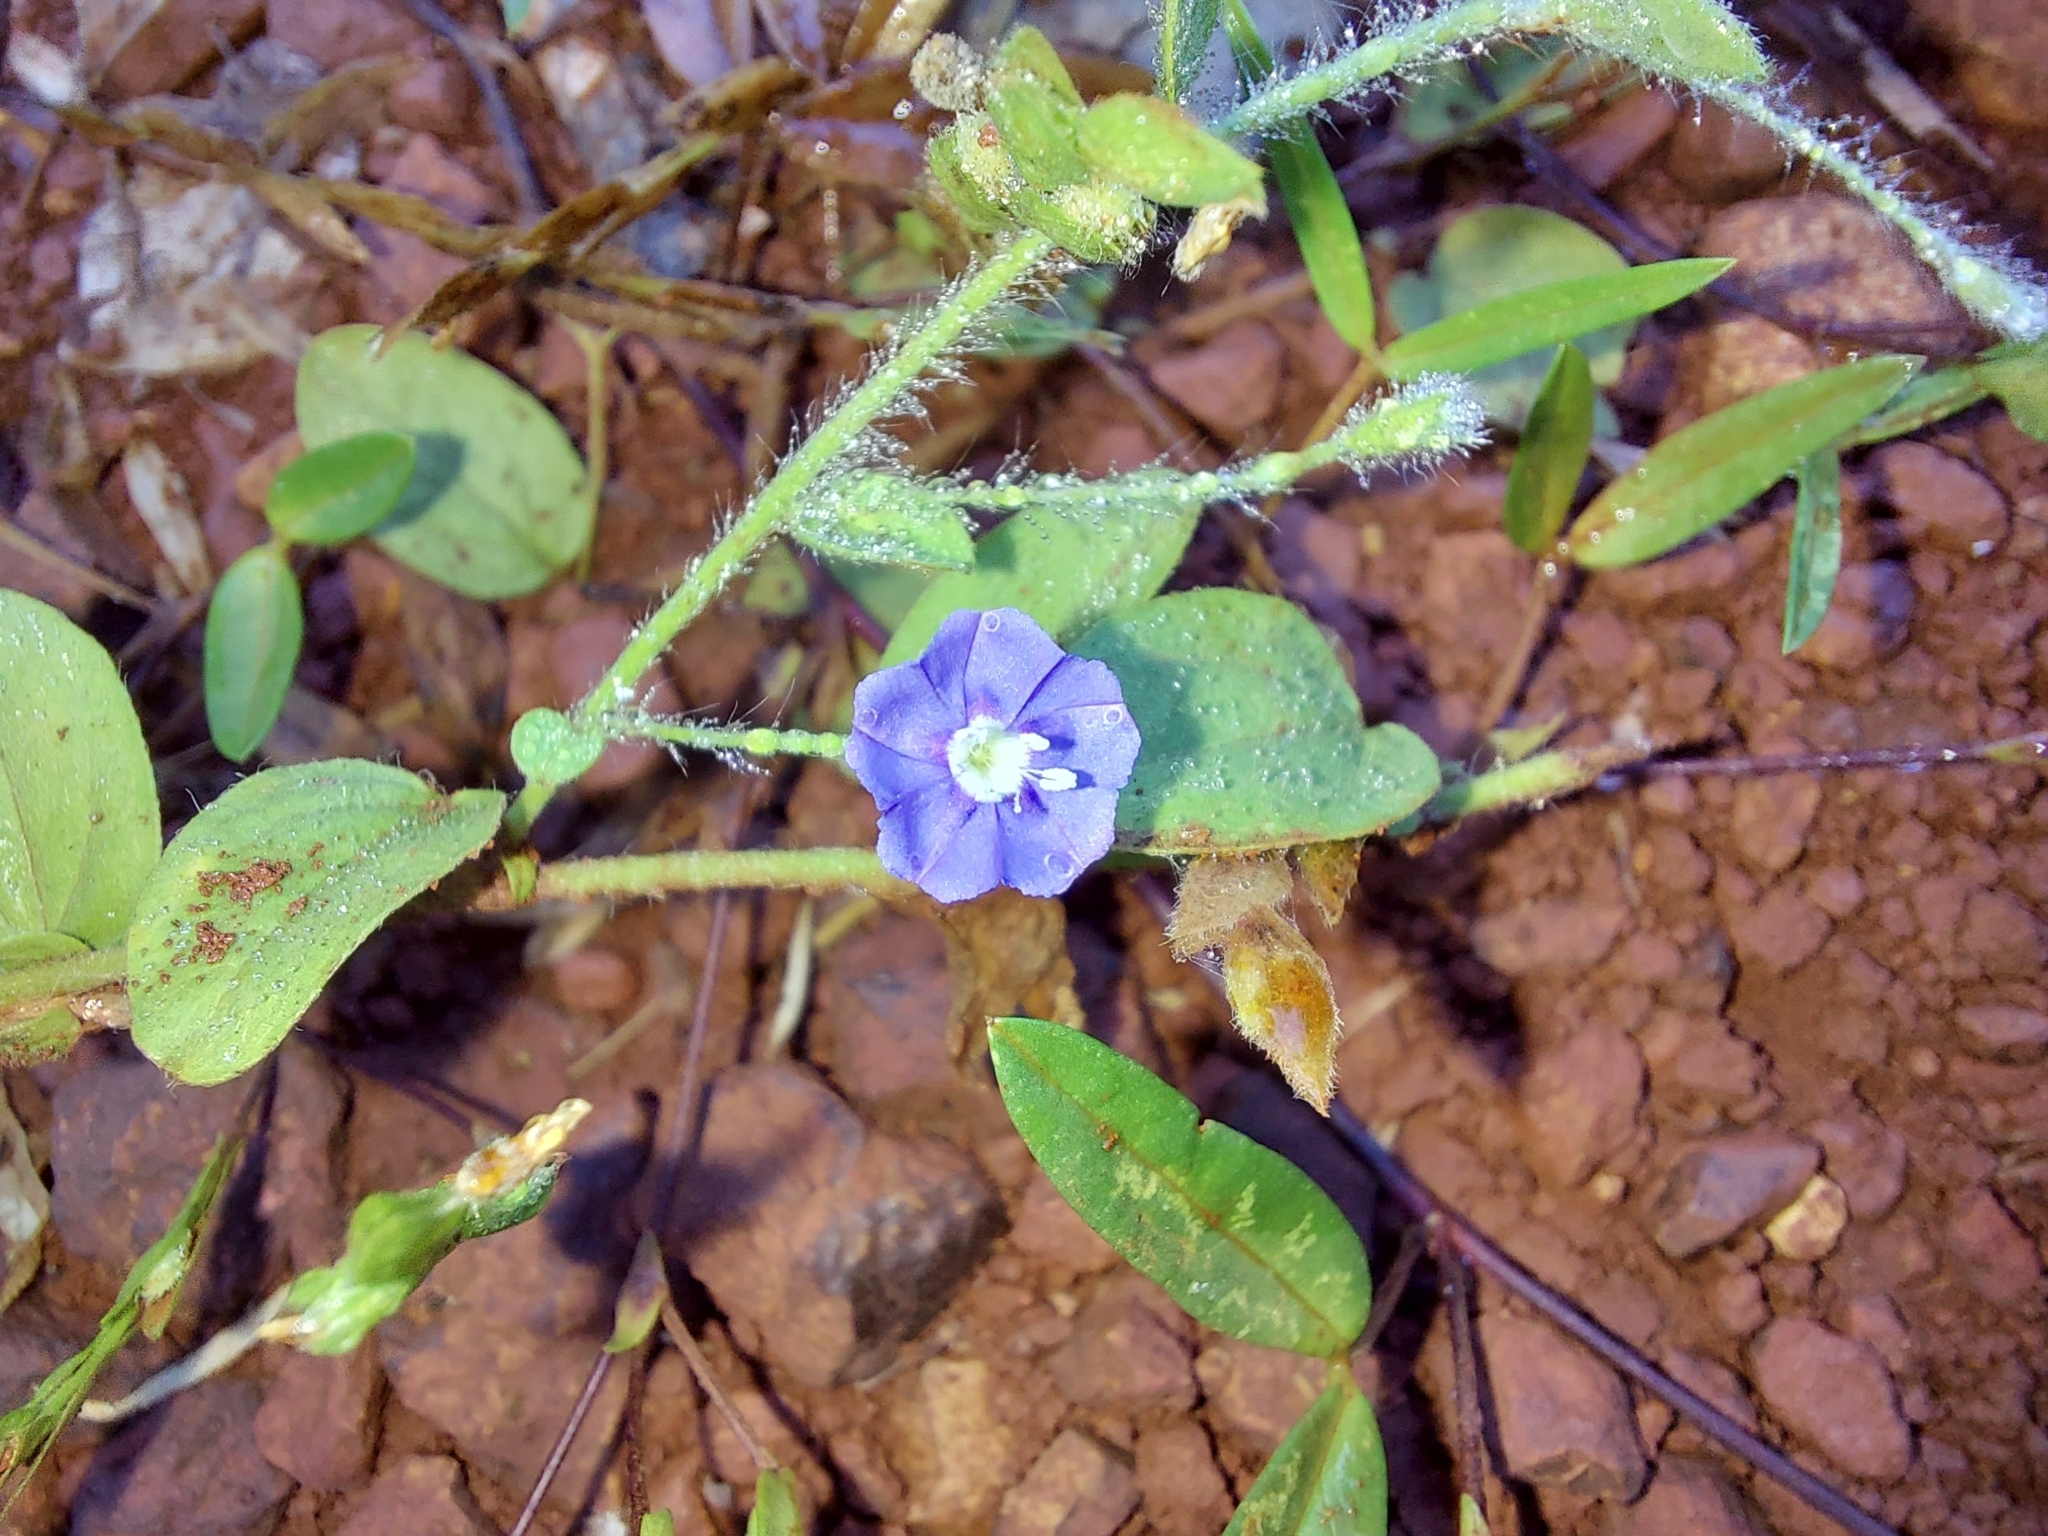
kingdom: Plantae
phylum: Tracheophyta
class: Magnoliopsida
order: Solanales
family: Convolvulaceae
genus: Evolvulus
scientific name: Evolvulus alsinoides
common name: Slender dwarf morning-glory
